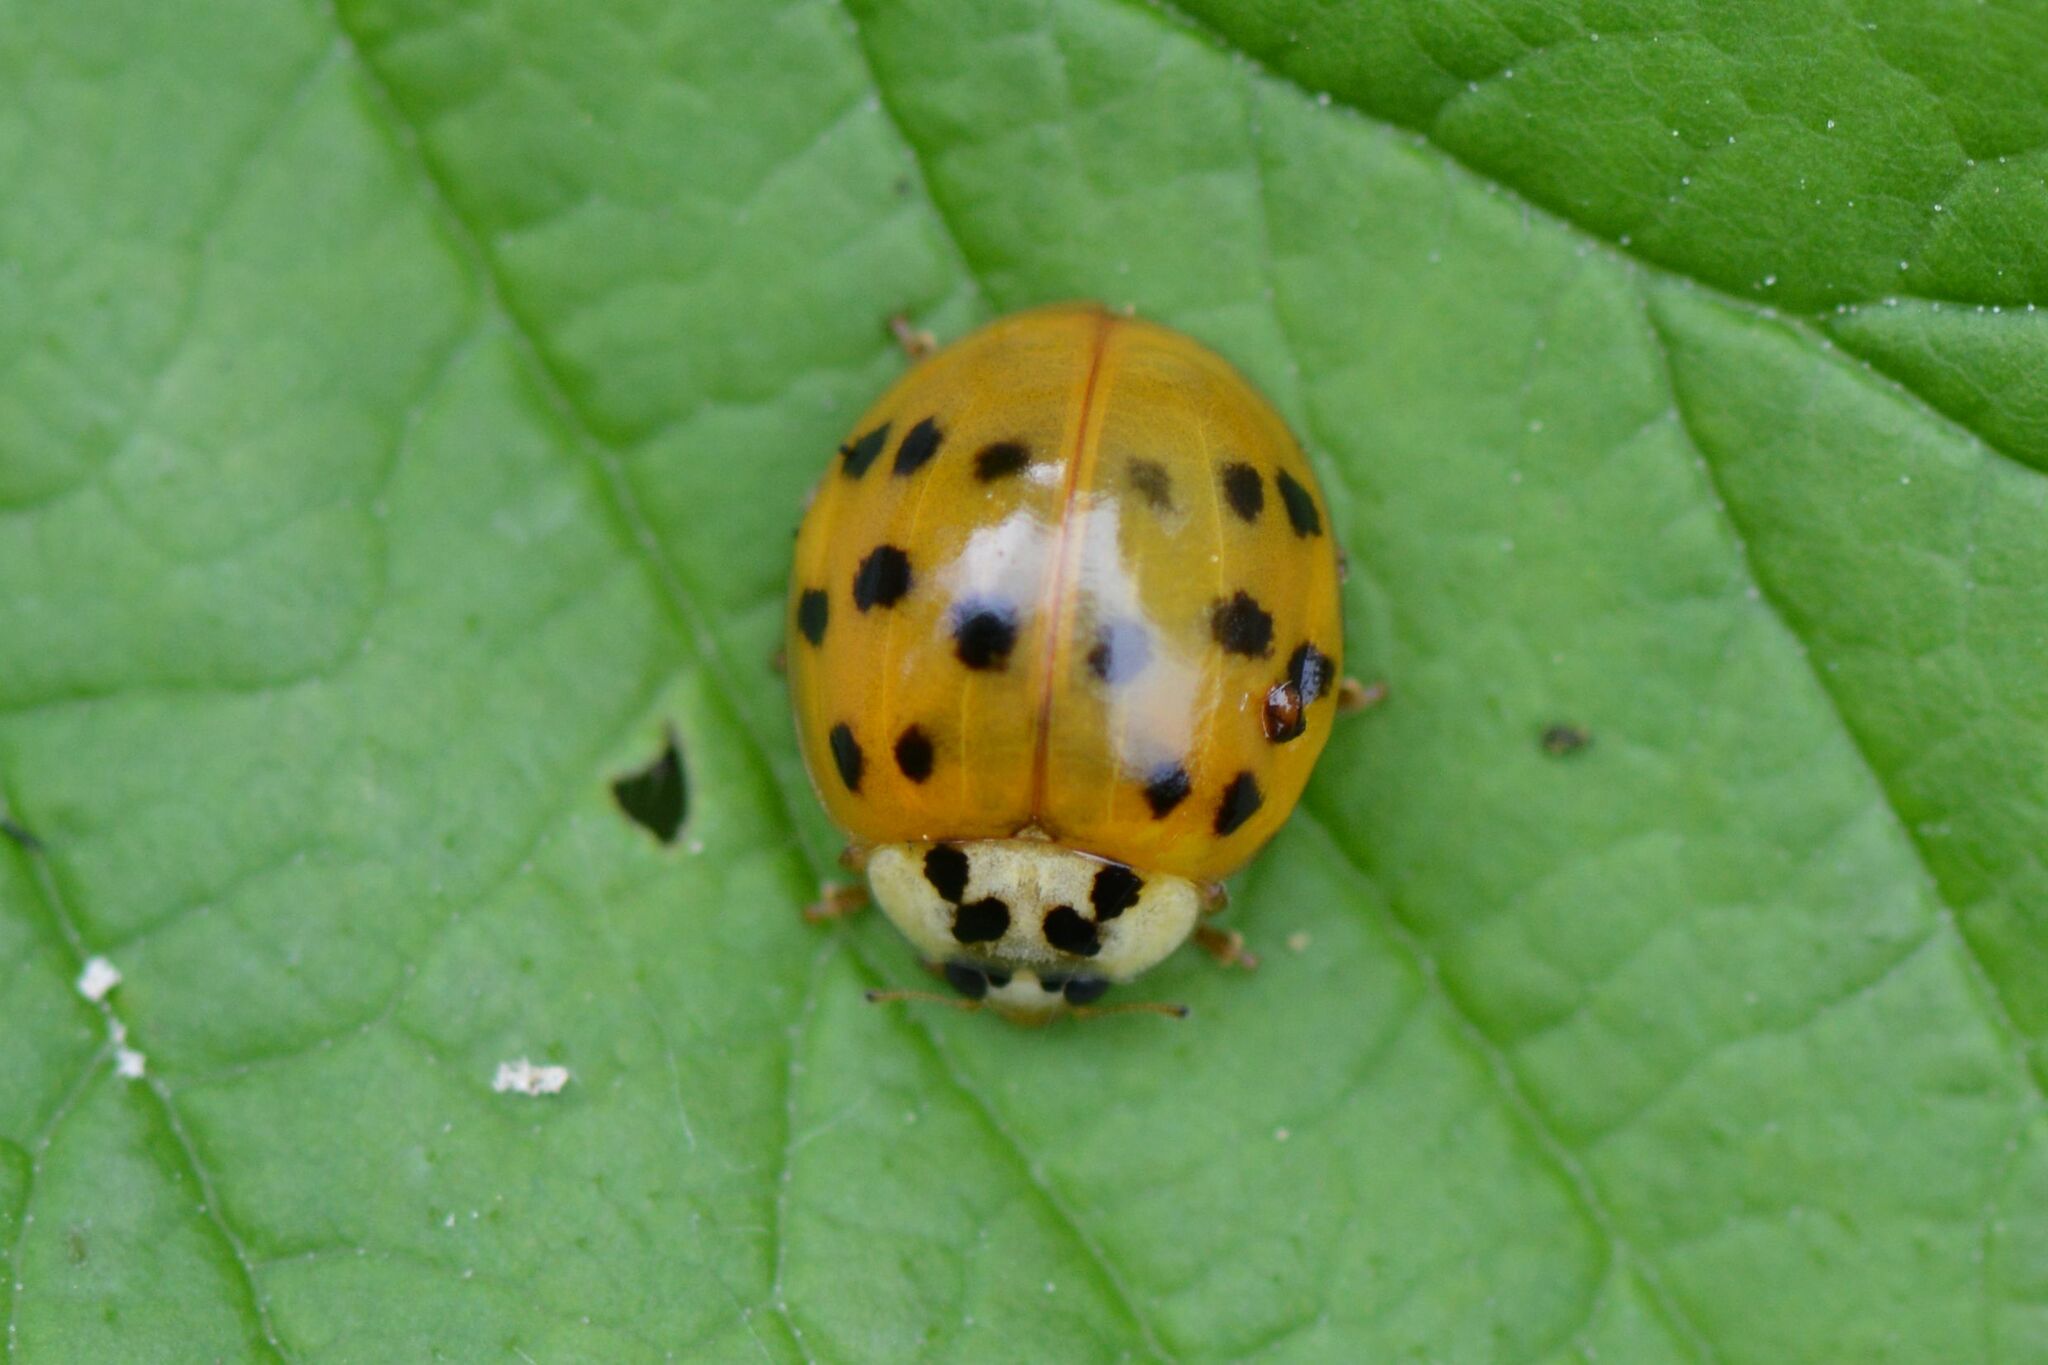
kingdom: Animalia
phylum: Arthropoda
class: Insecta
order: Coleoptera
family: Coccinellidae
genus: Harmonia
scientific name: Harmonia axyridis
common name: Harlequin ladybird
